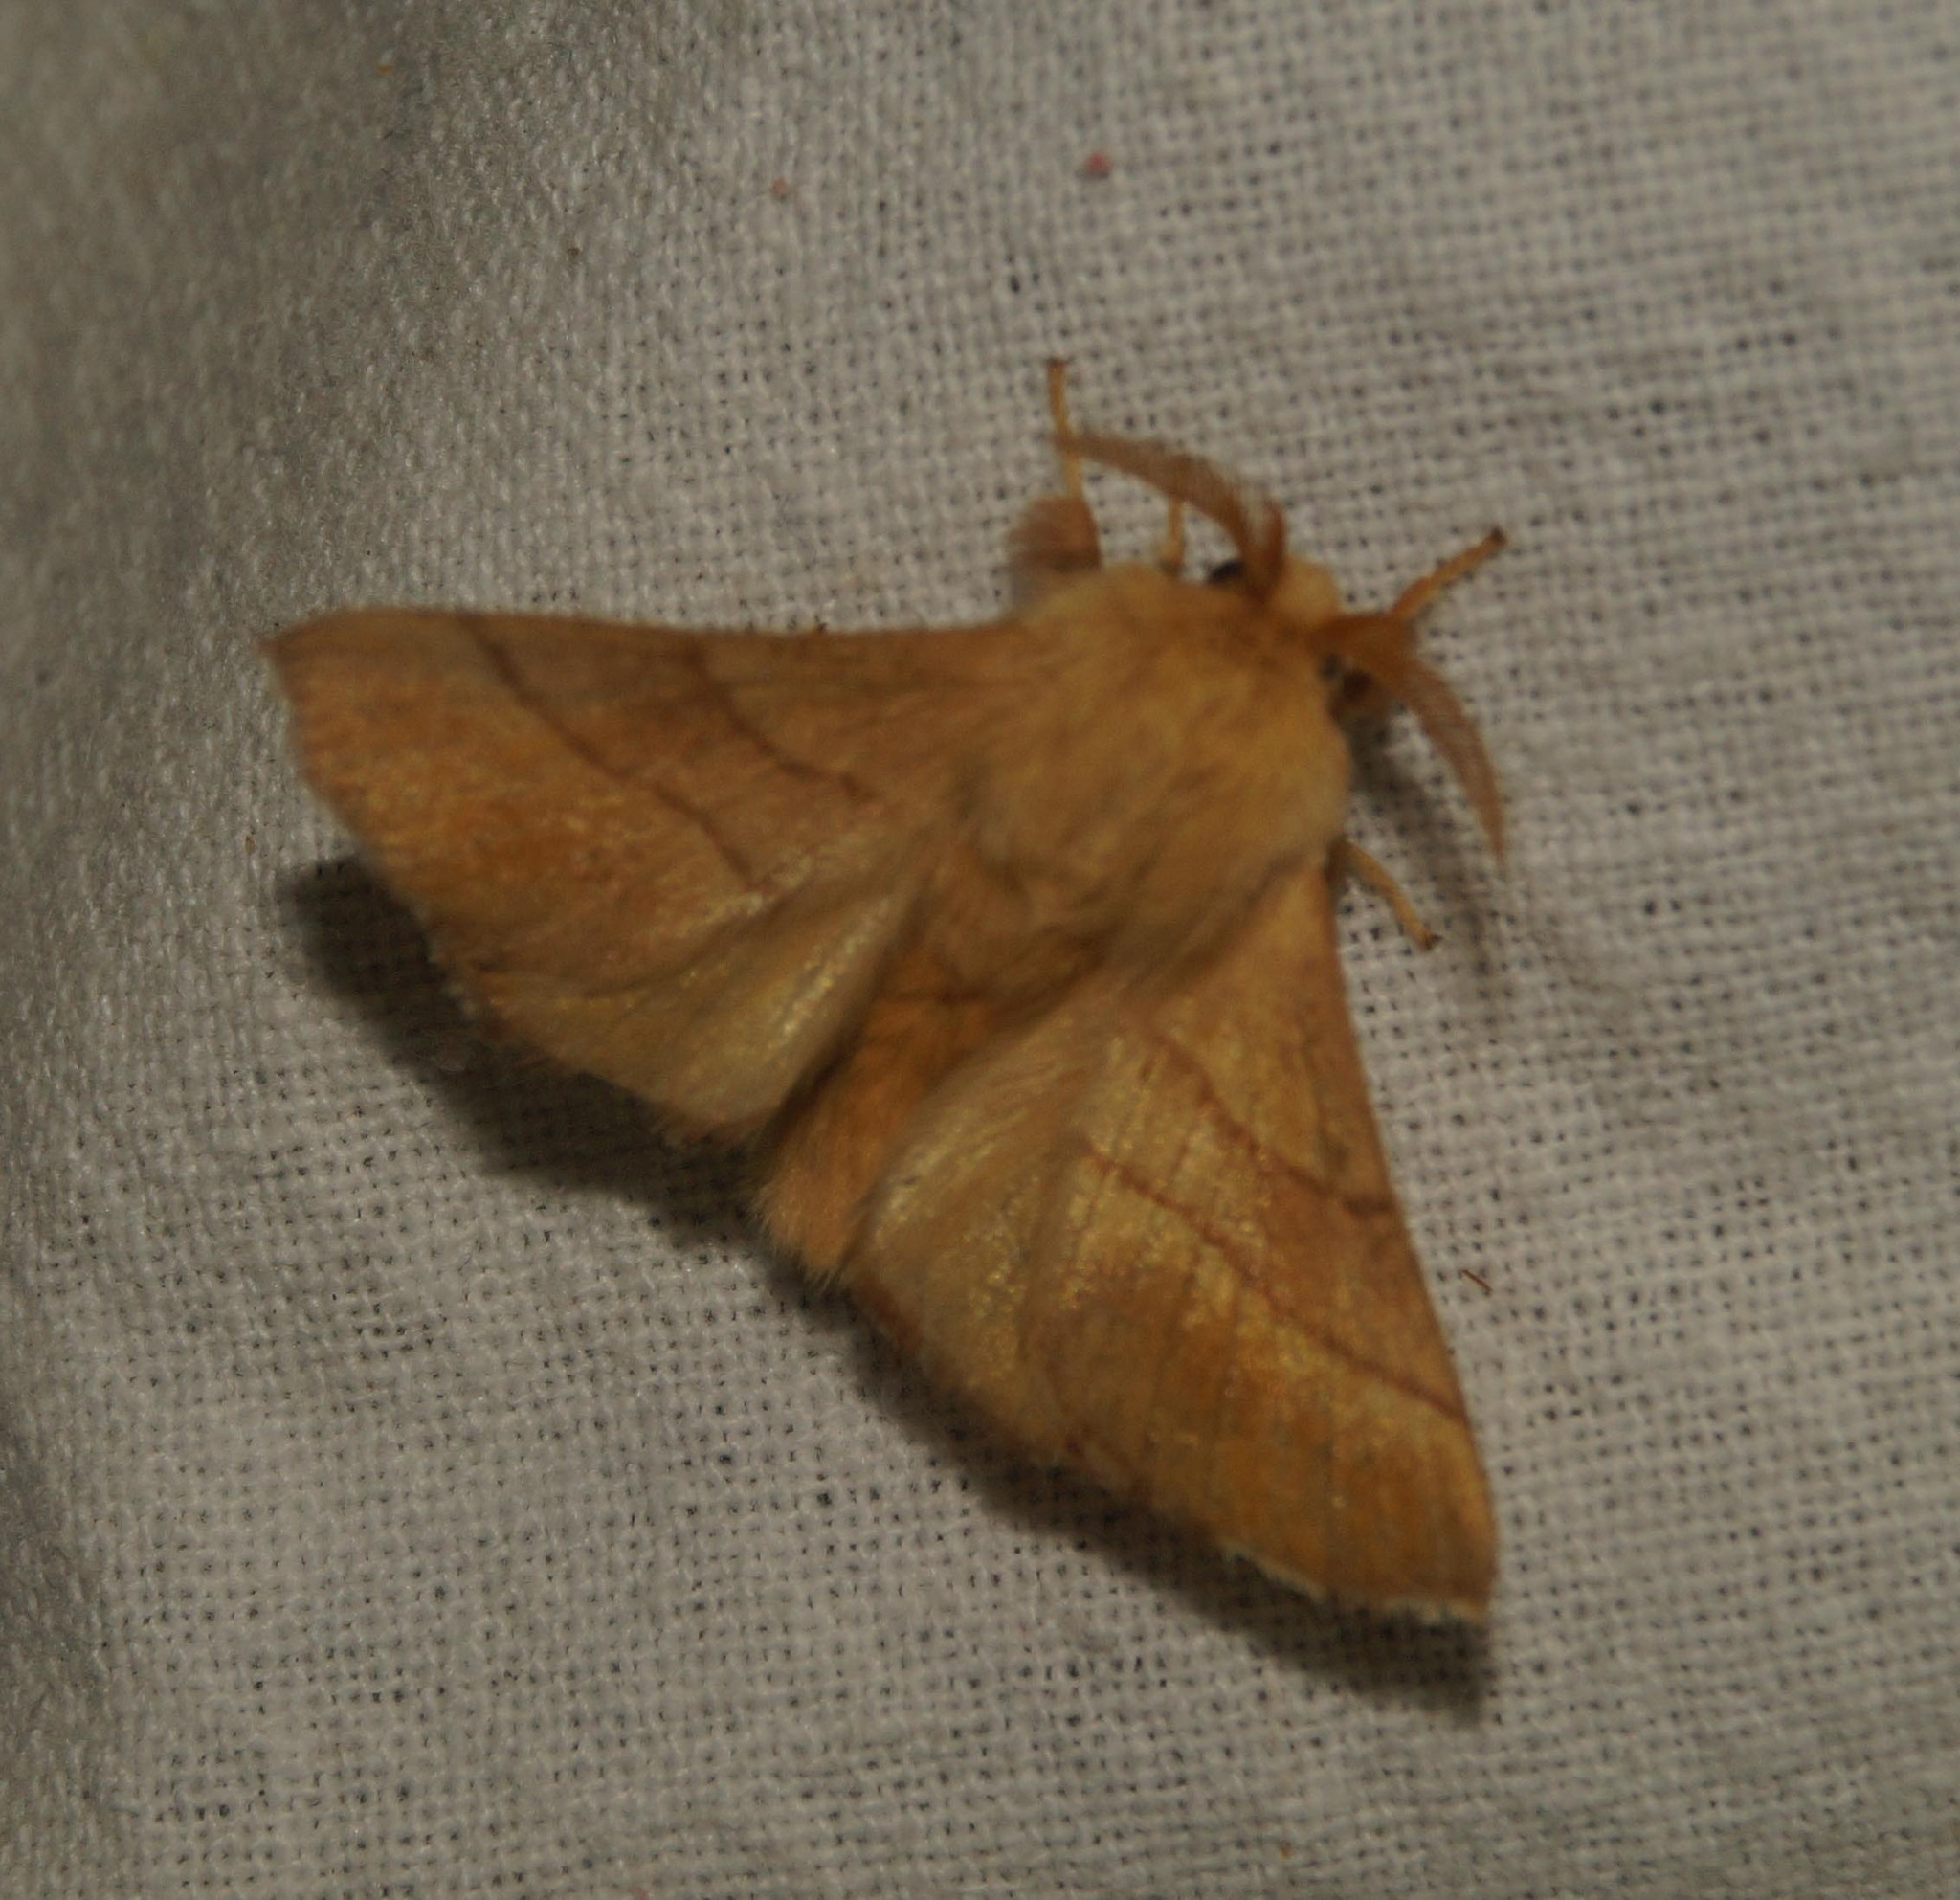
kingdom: Animalia
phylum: Arthropoda
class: Insecta
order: Lepidoptera
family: Lasiocampidae
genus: Malacosoma
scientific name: Malacosoma neustria
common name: The lackey
